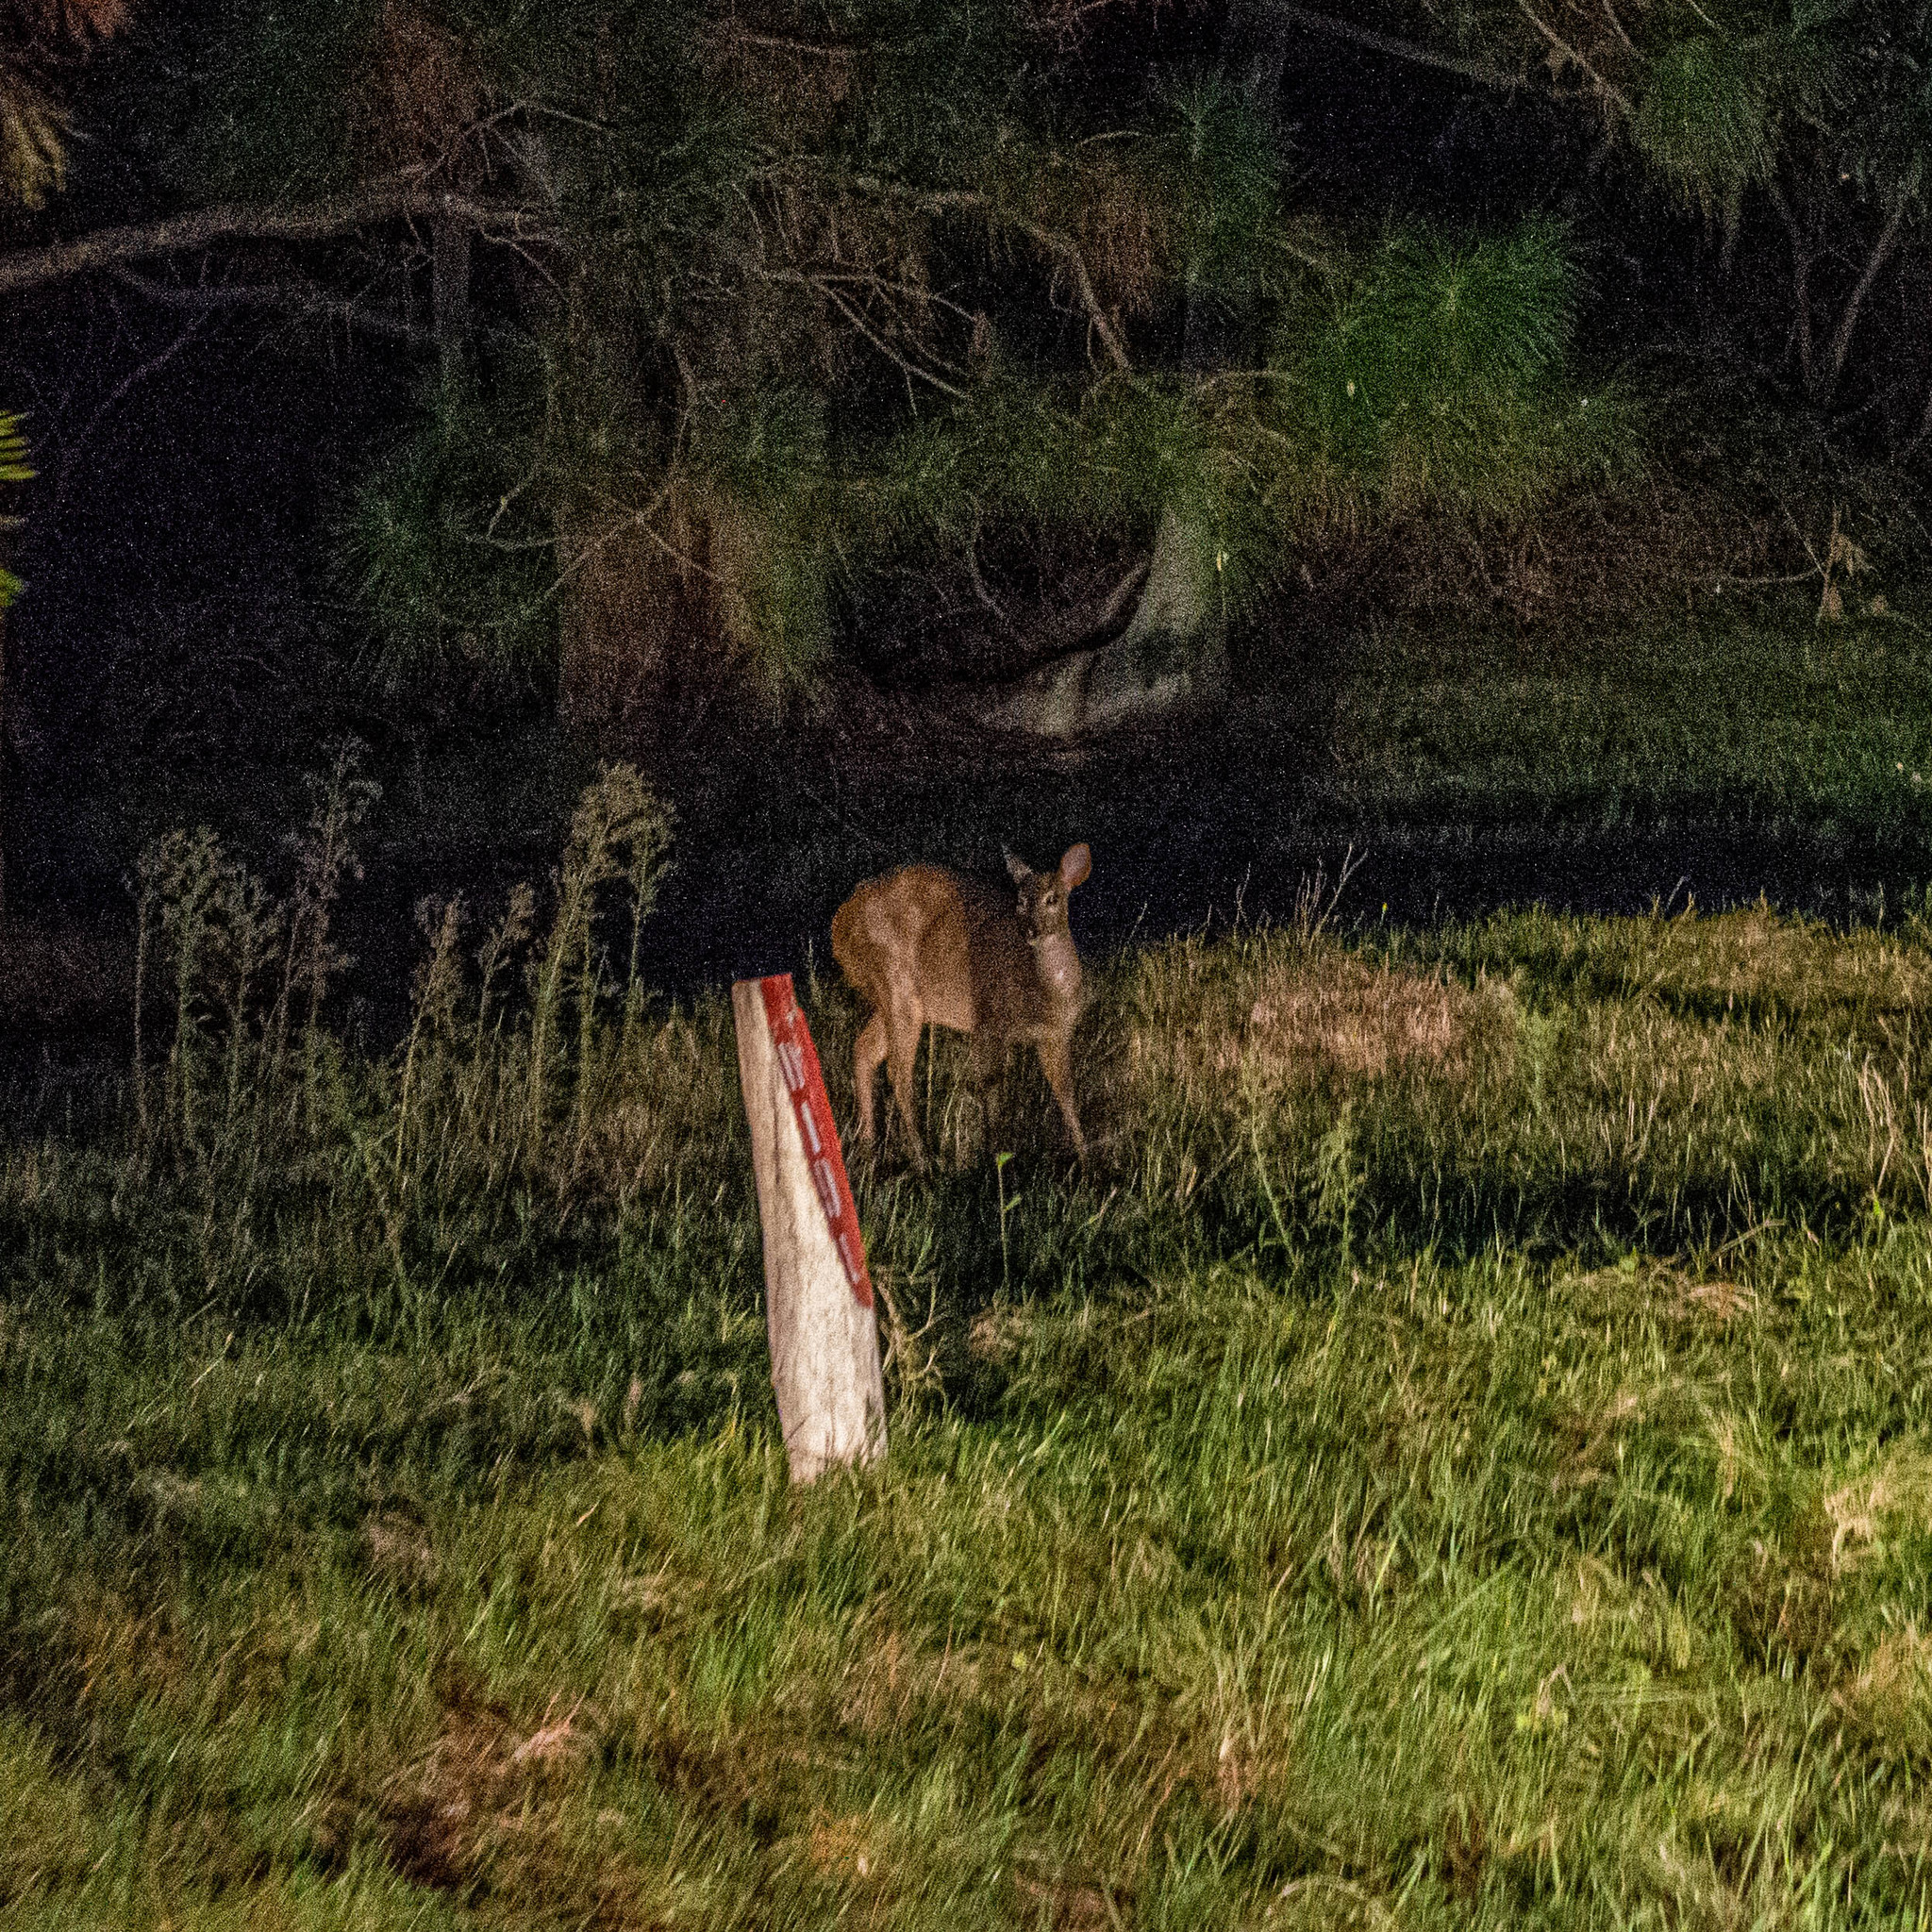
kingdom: Animalia
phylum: Chordata
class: Mammalia
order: Artiodactyla
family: Cervidae
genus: Mazama
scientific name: Mazama gouazoubira
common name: Gray brocket
